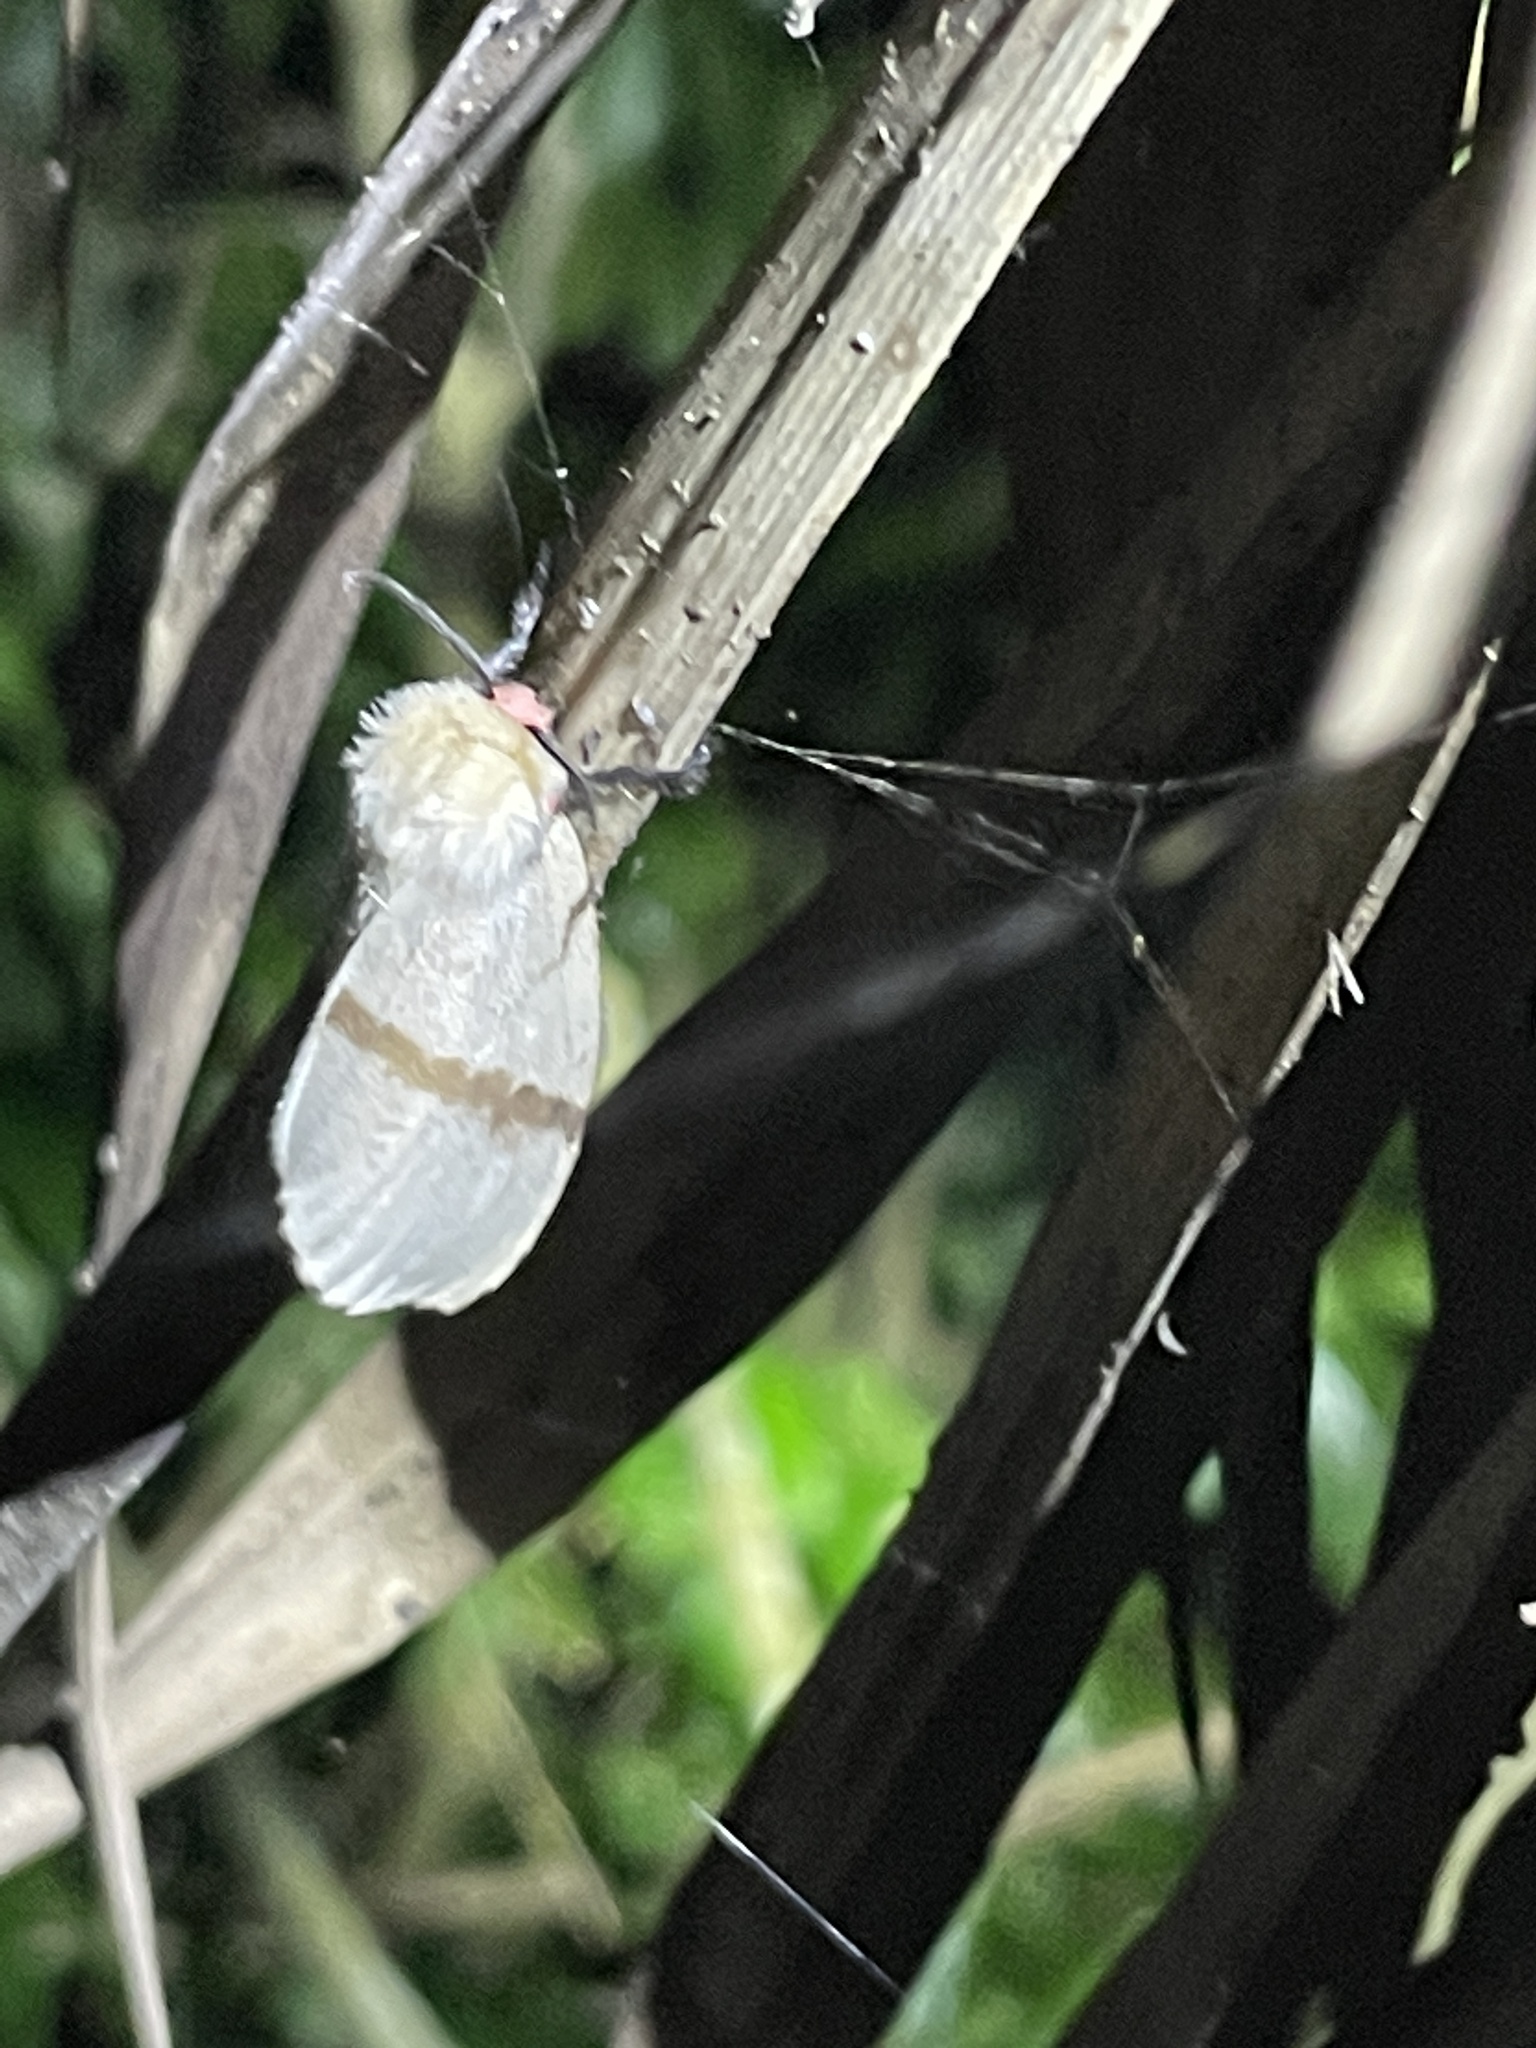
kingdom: Animalia
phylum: Arthropoda
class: Insecta
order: Lepidoptera
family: Erebidae
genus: Lymantria
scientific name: Lymantria xylina
